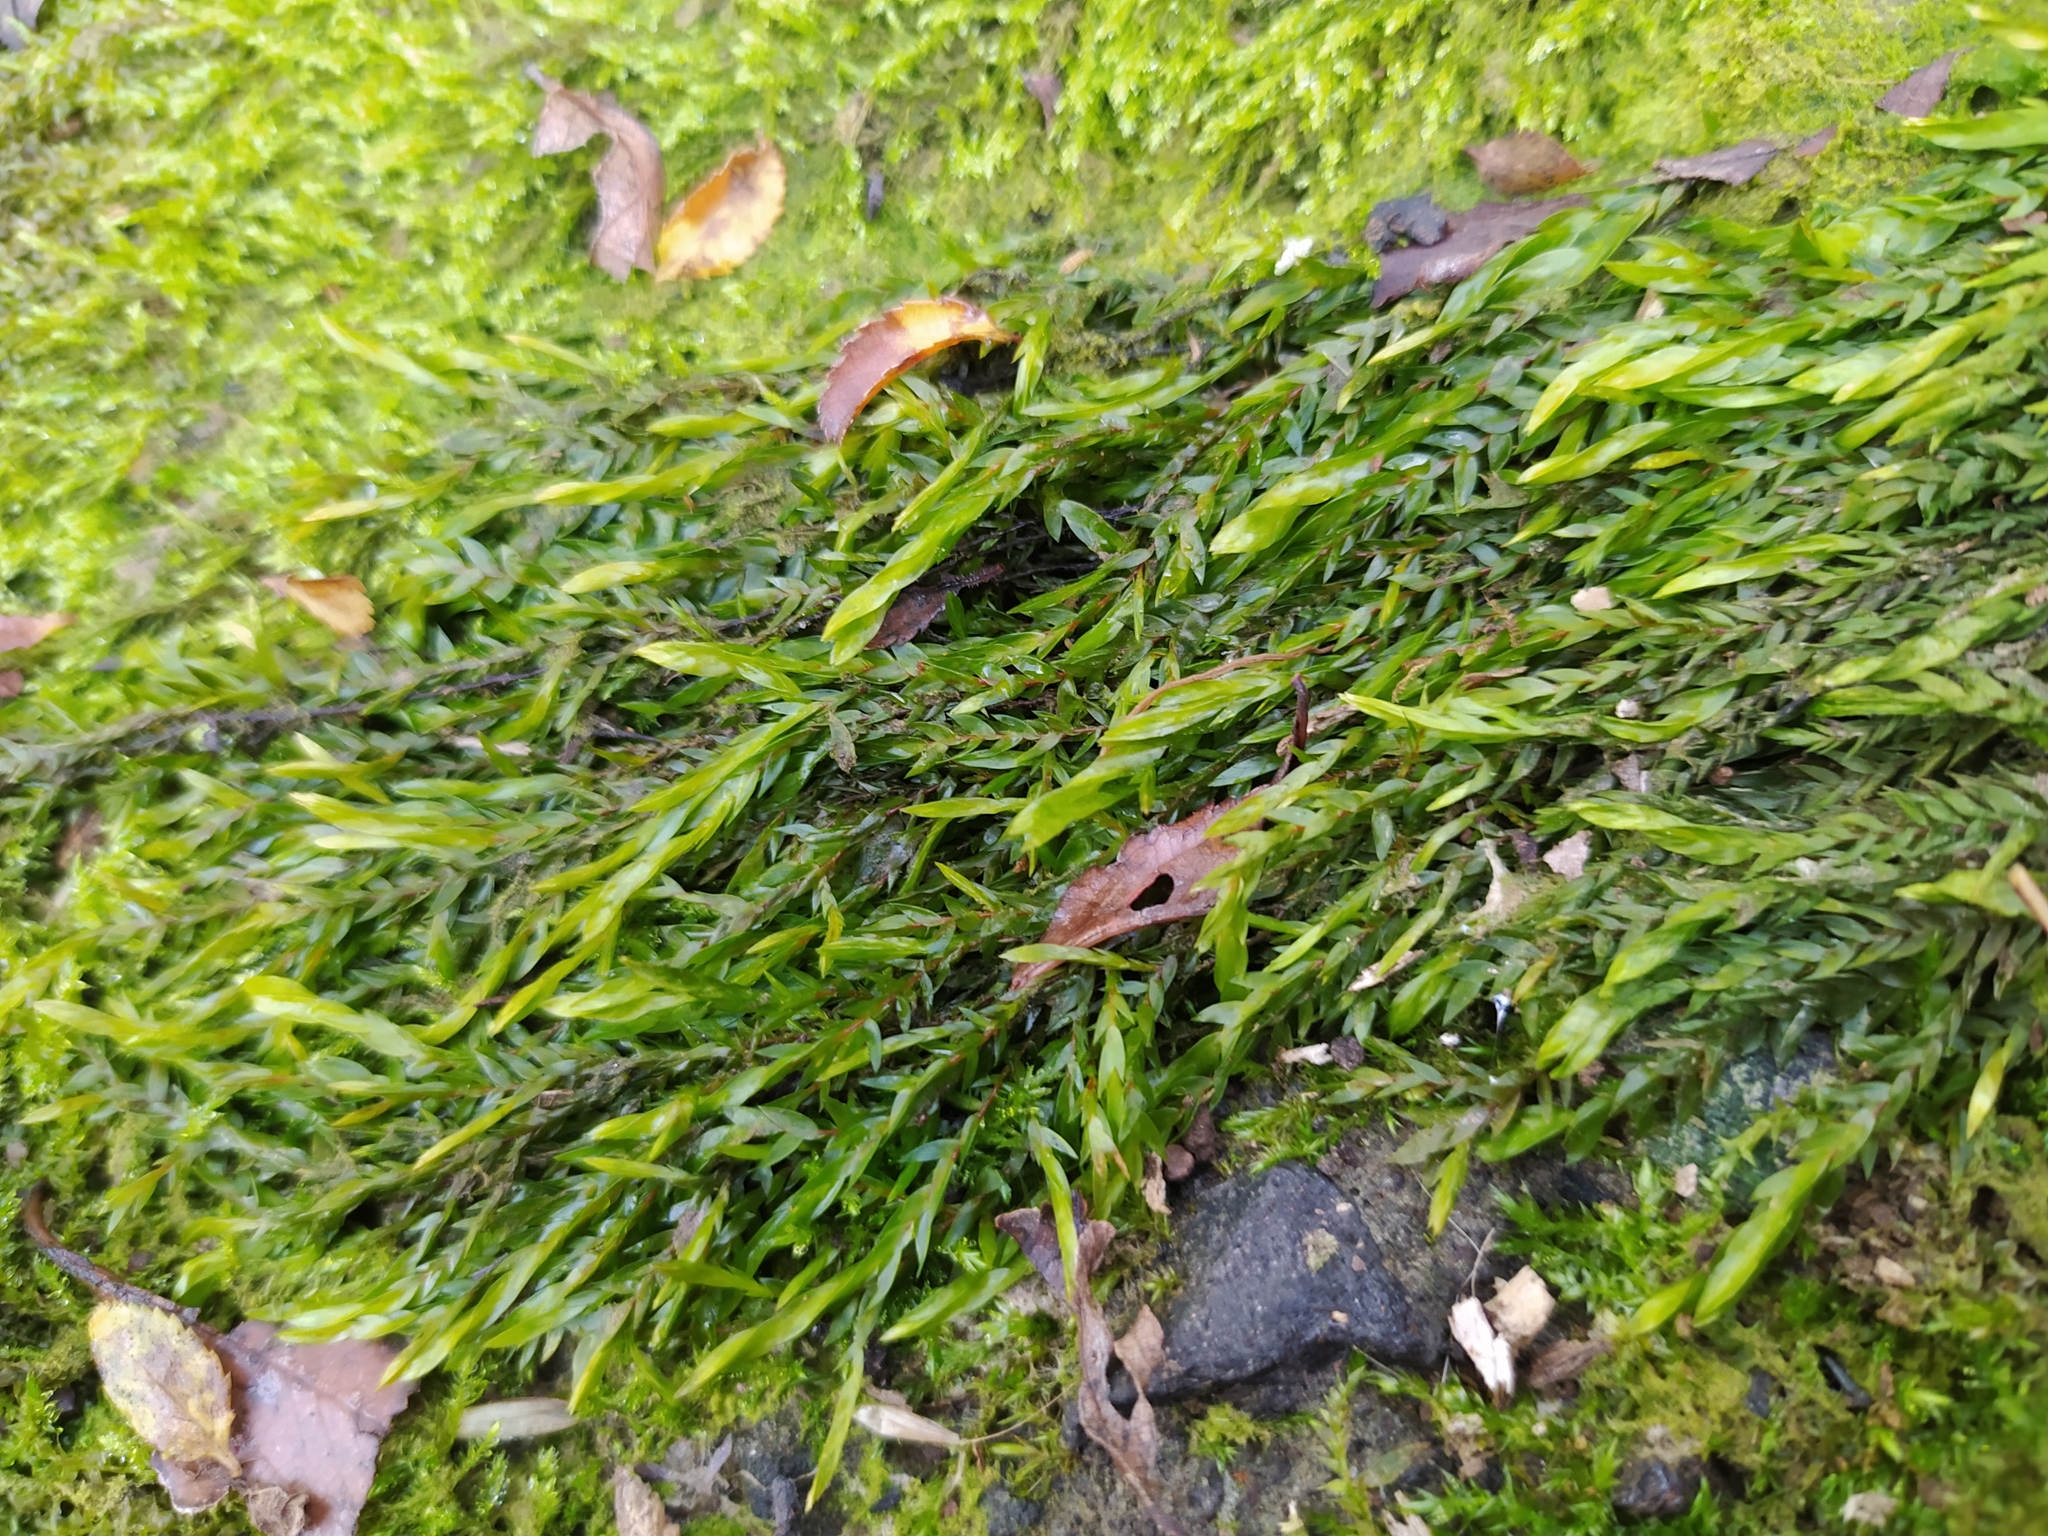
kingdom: Plantae
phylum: Bryophyta
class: Bryopsida
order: Hypnales
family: Fontinalaceae
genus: Fontinalis
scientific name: Fontinalis antipyretica
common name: Greater water-moss
